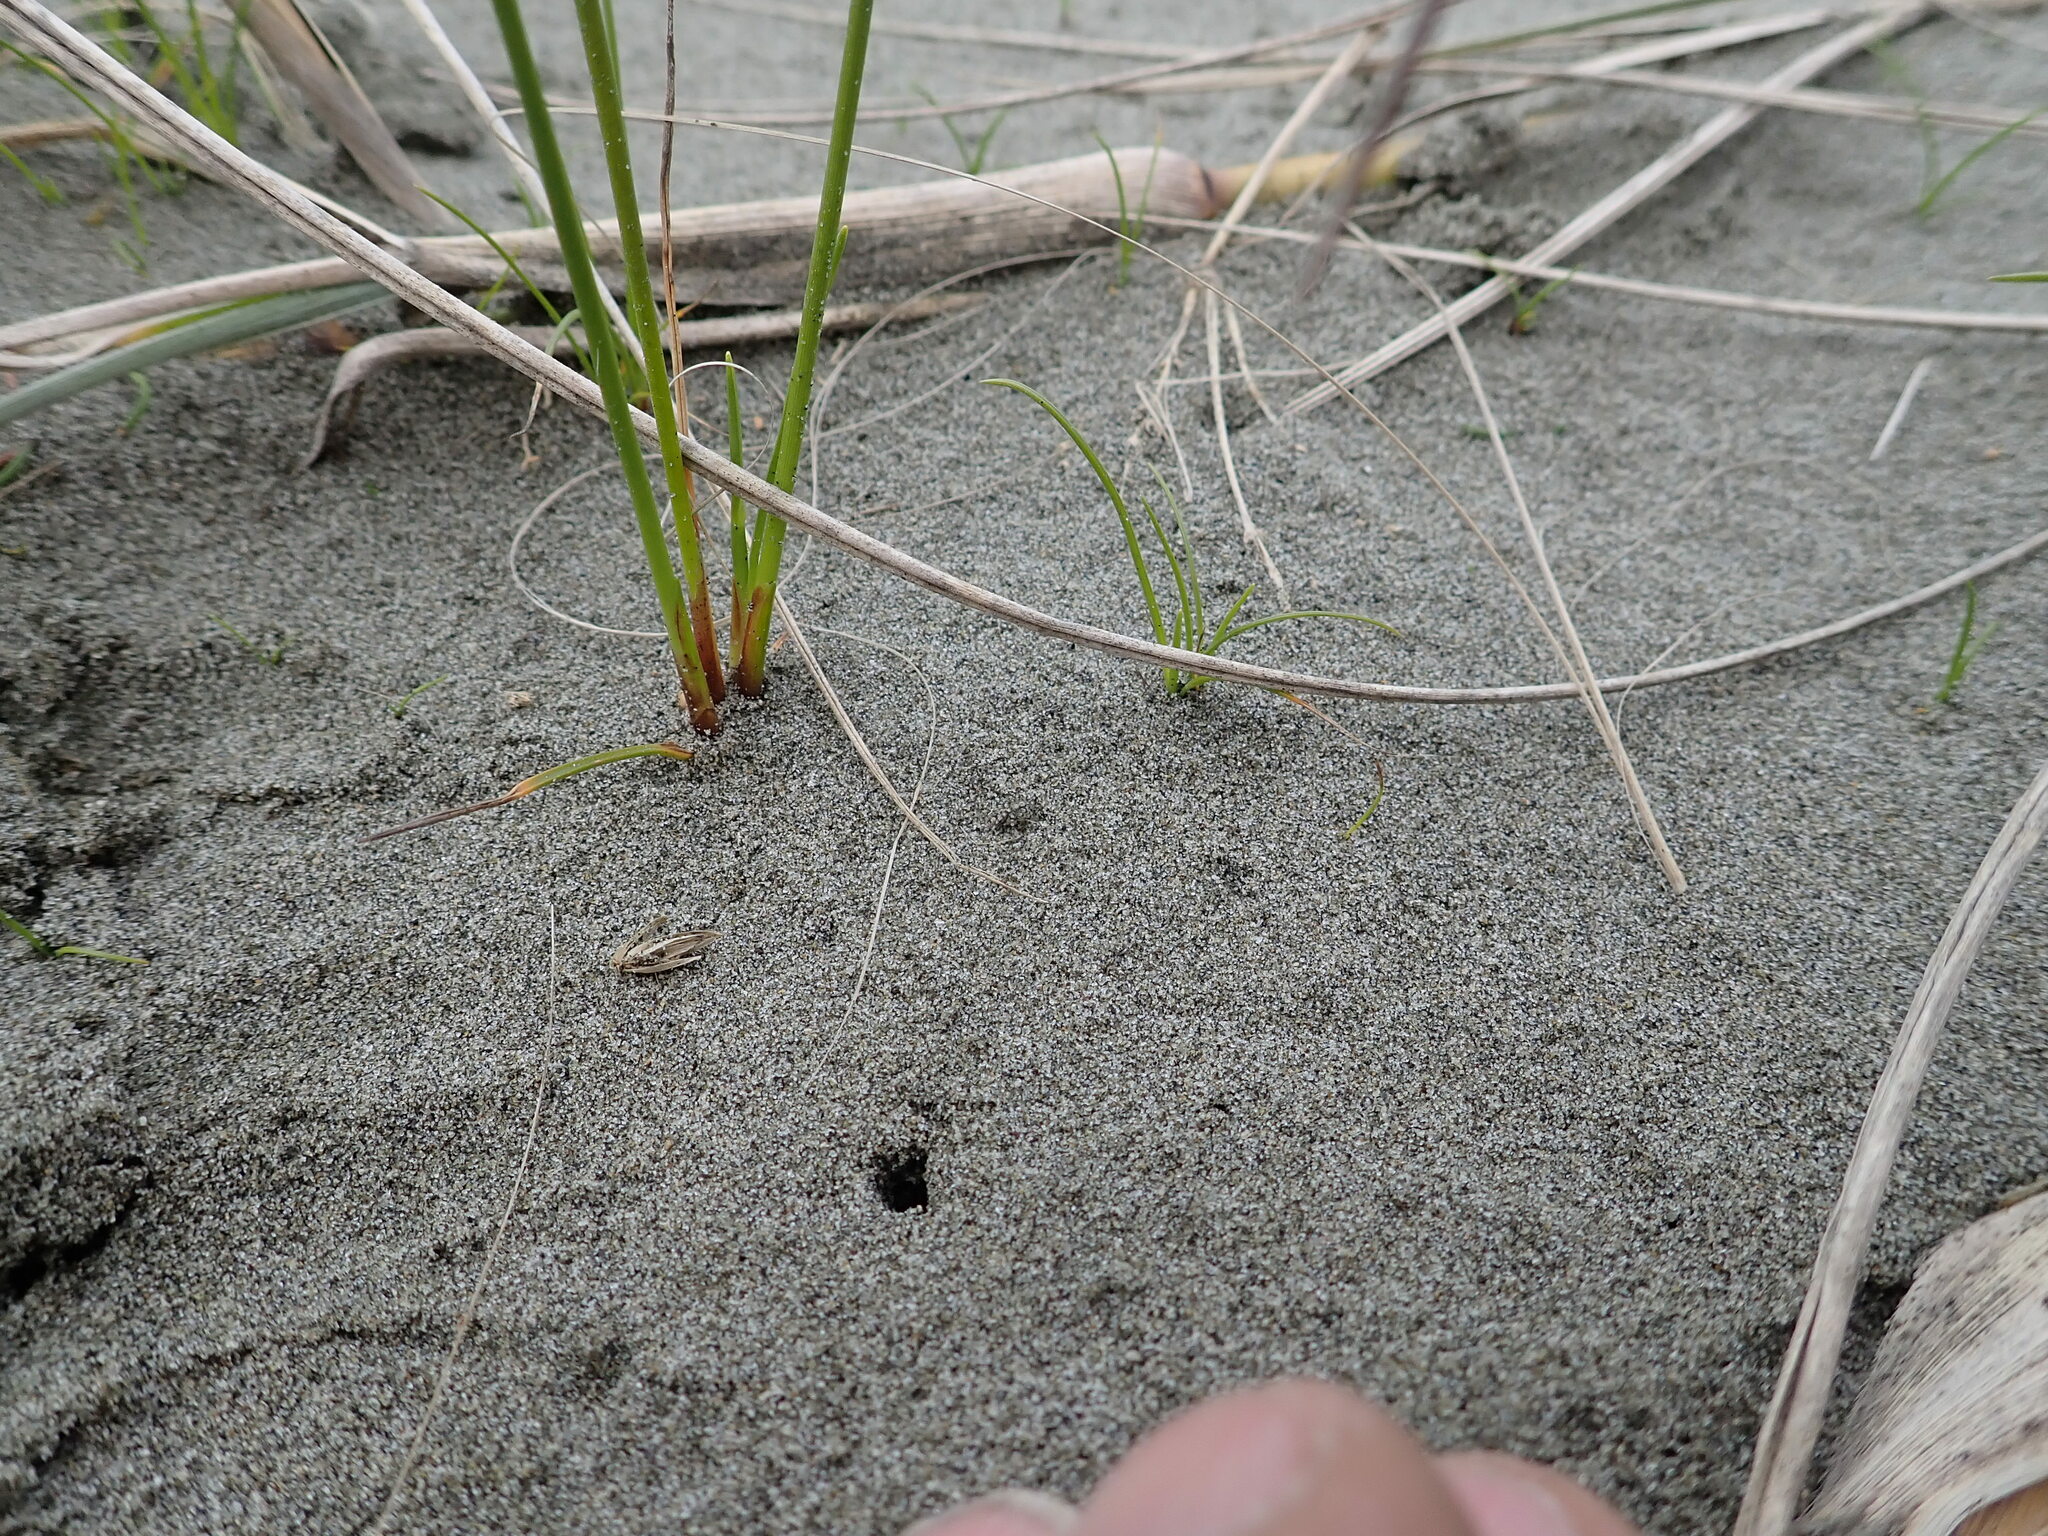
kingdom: Animalia
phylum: Arthropoda
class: Arachnida
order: Araneae
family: Lycosidae
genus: Anoteropsis
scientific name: Anoteropsis litoralis
